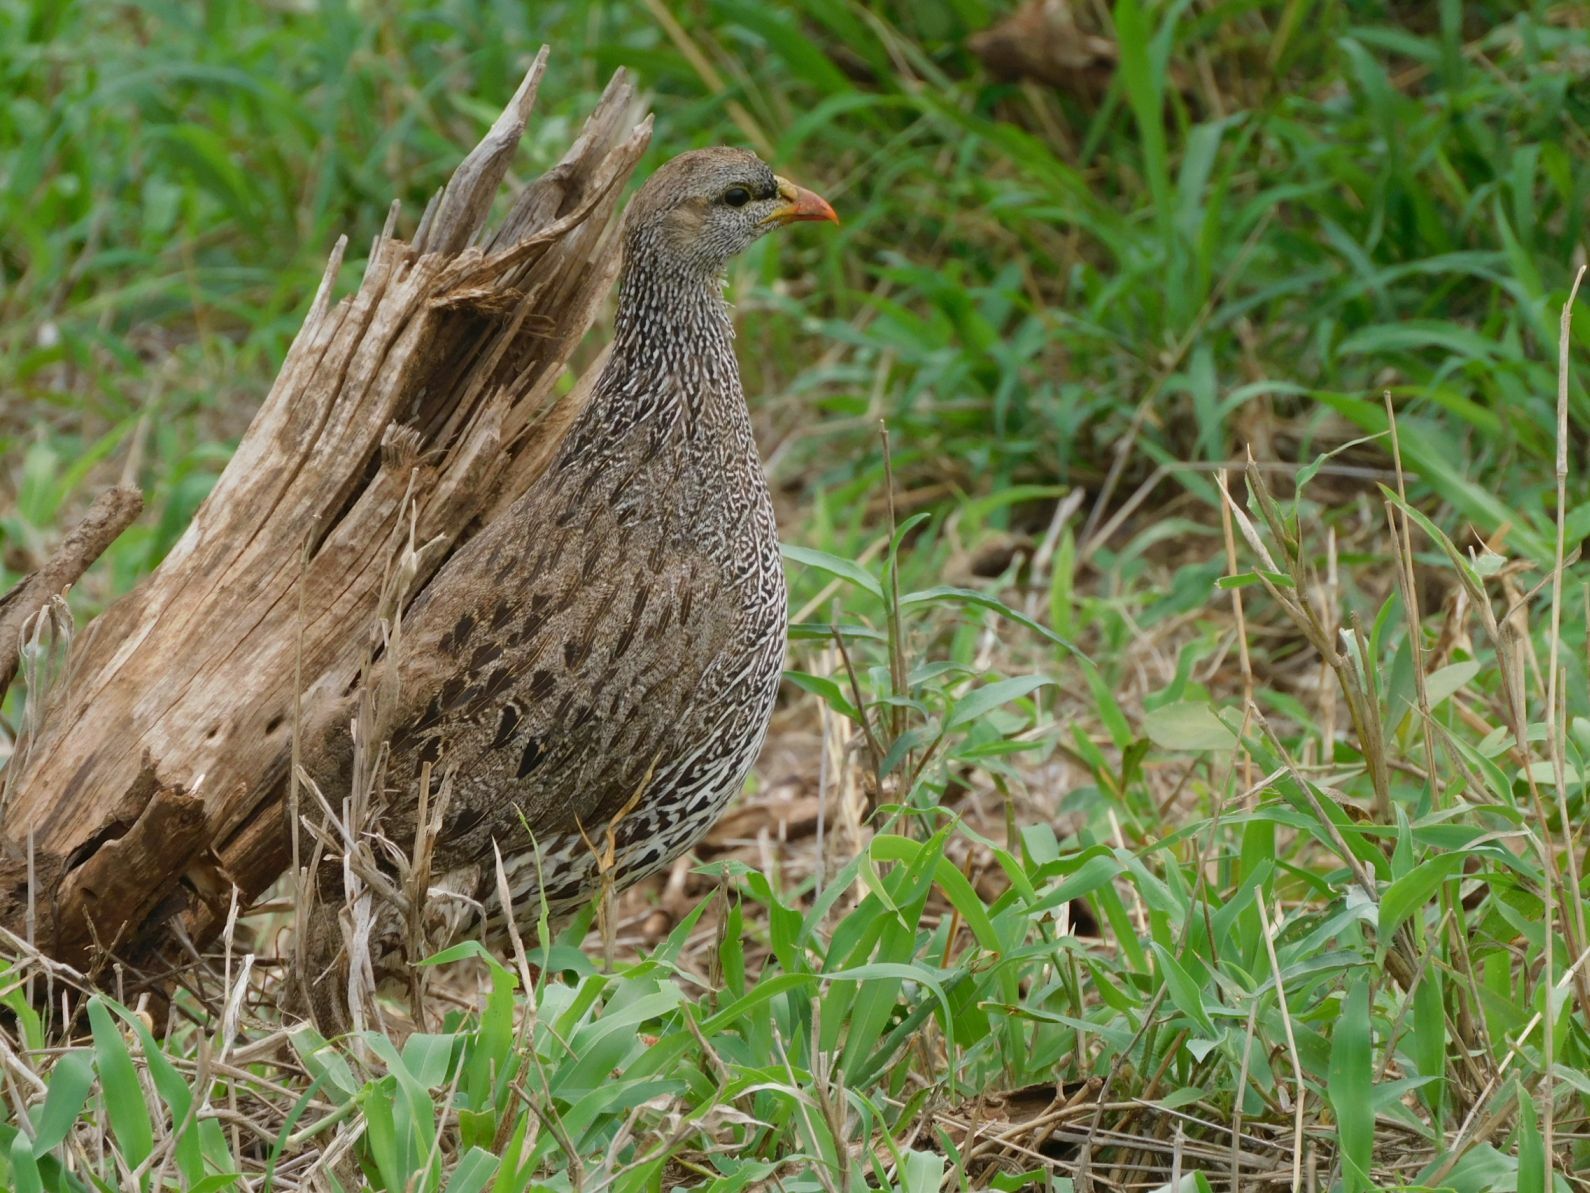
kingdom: Animalia
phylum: Chordata
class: Aves
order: Galliformes
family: Phasianidae
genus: Pternistis
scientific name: Pternistis natalensis
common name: Natal spurfowl
